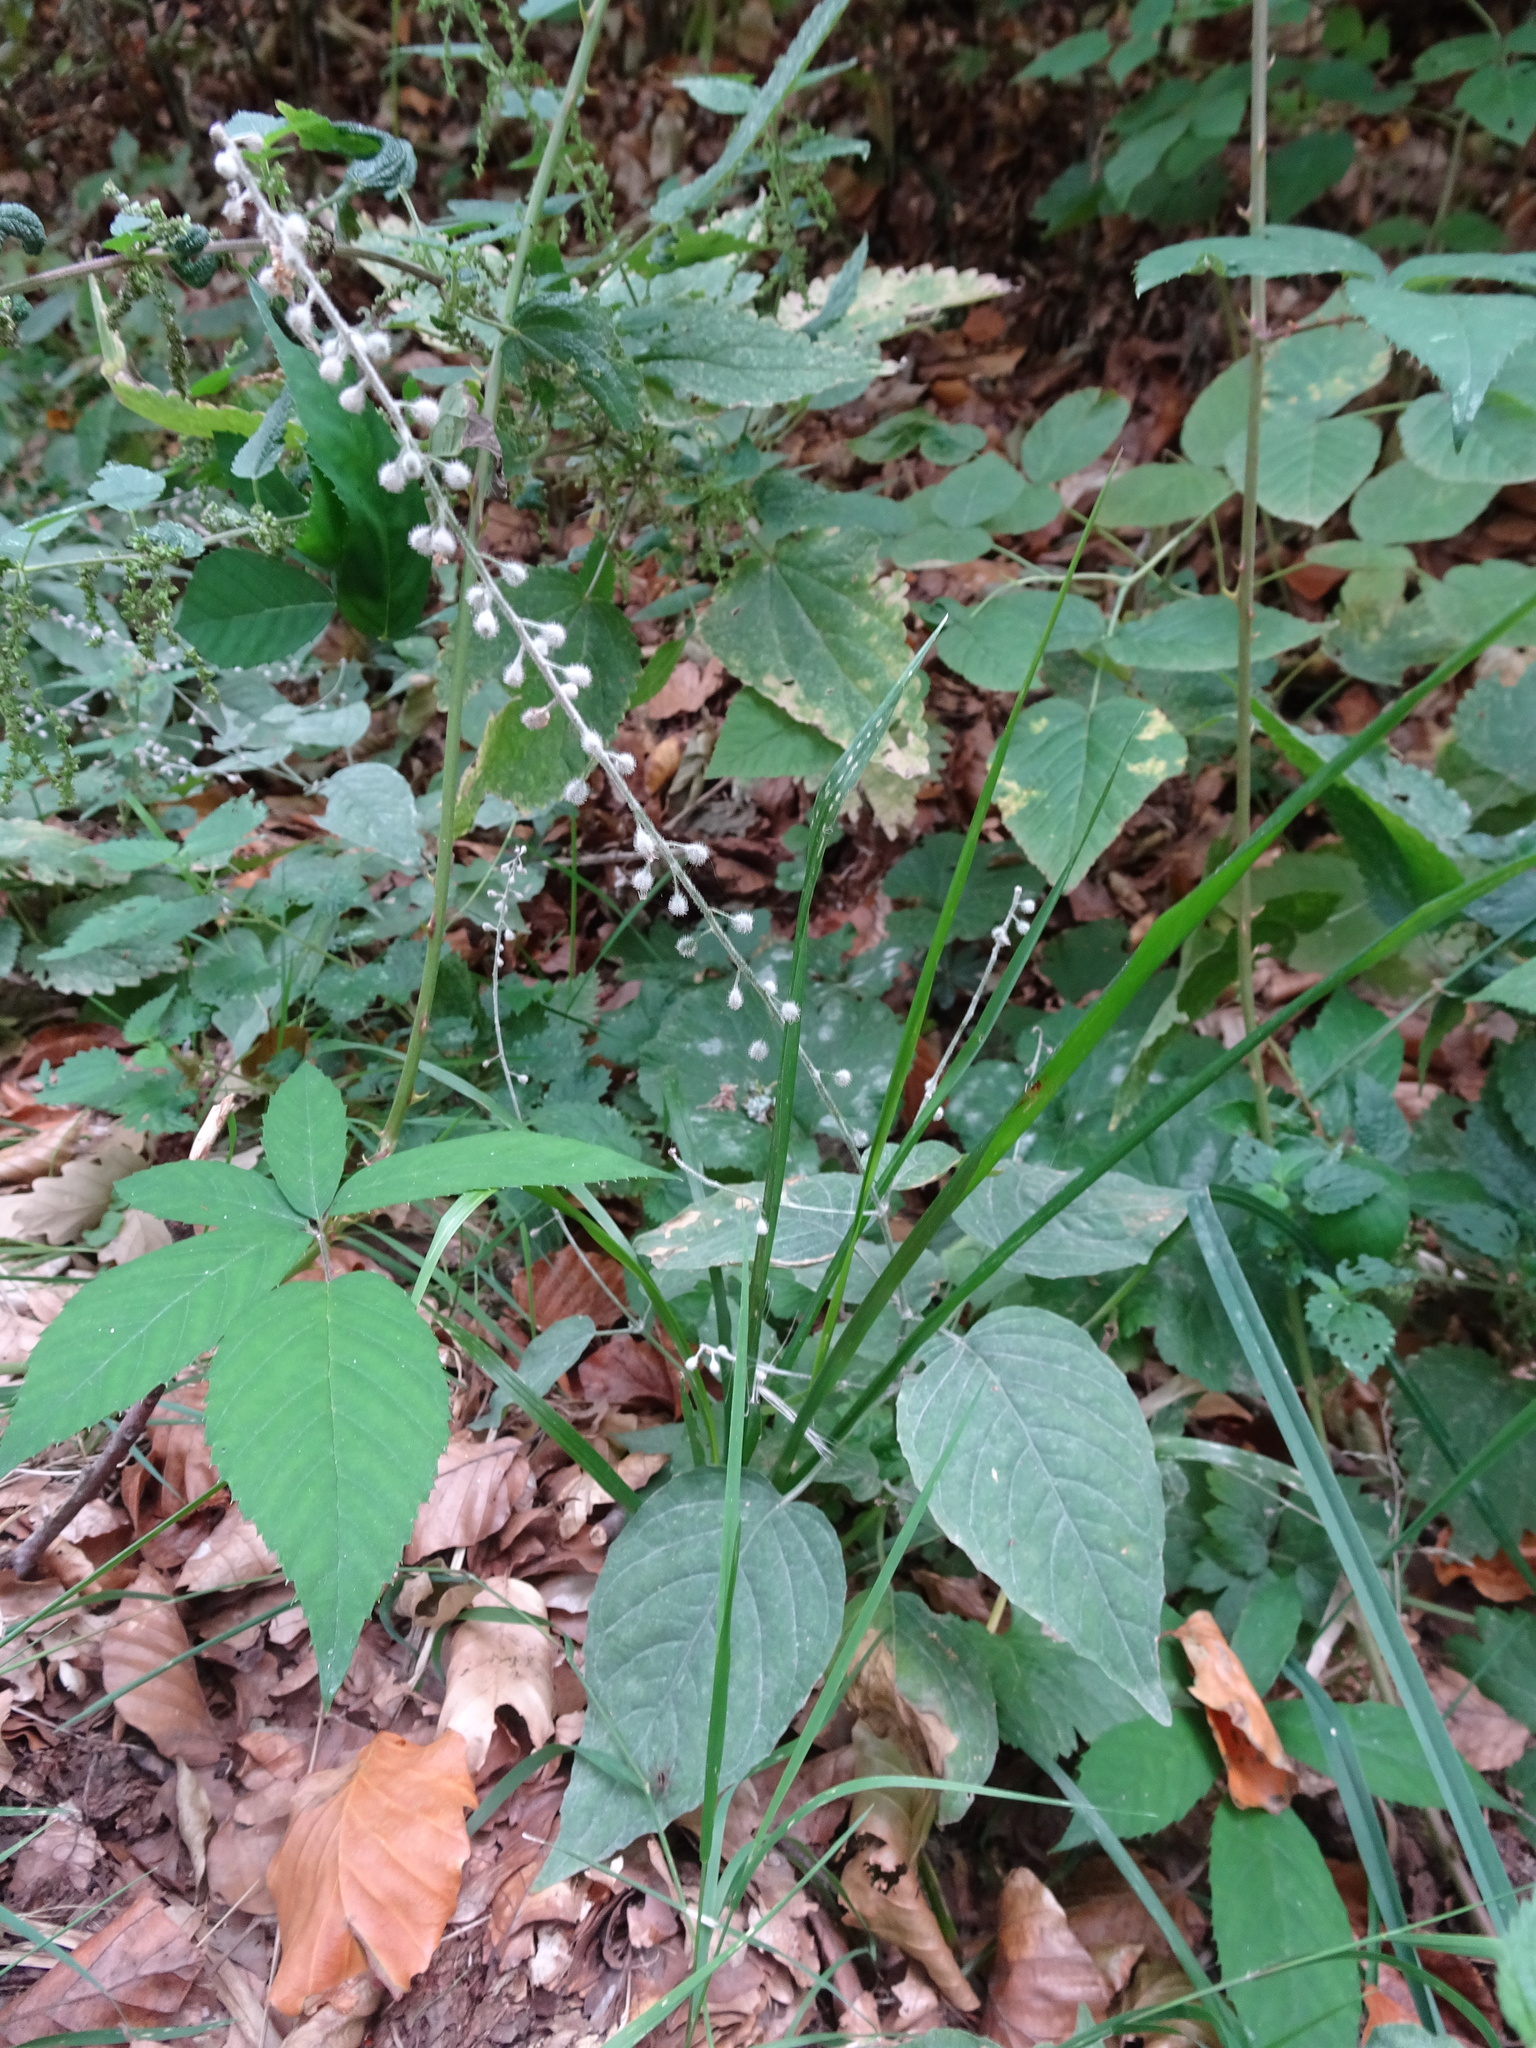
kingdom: Plantae
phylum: Tracheophyta
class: Magnoliopsida
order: Myrtales
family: Onagraceae
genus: Circaea
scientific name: Circaea lutetiana
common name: Enchanter's-nightshade
